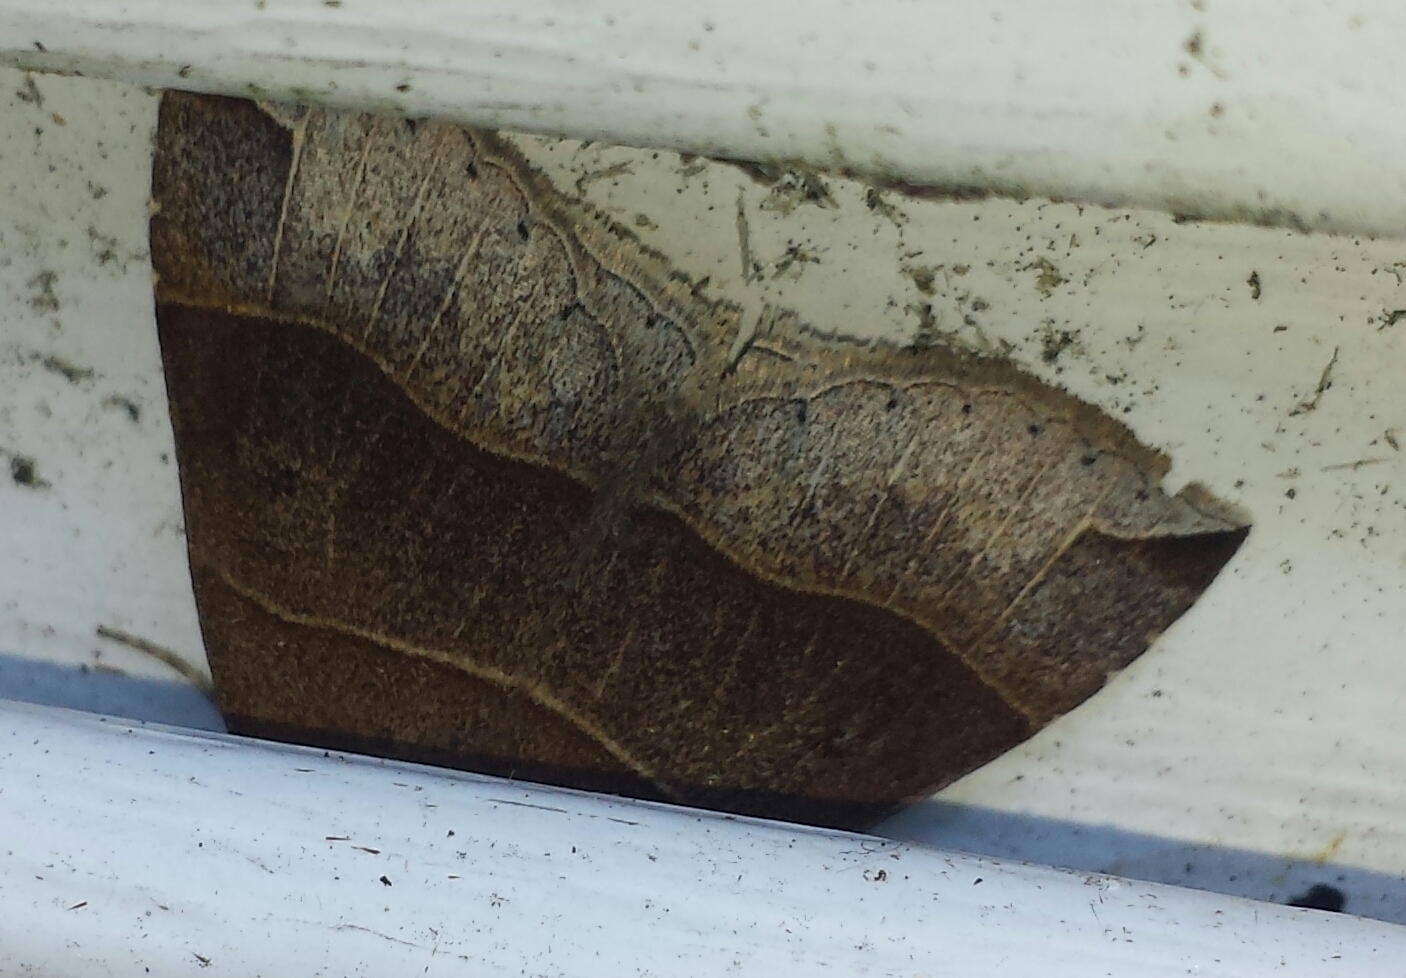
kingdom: Animalia
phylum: Arthropoda
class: Insecta
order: Lepidoptera
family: Erebidae
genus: Parallelia
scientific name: Parallelia bistriaris
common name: Maple looper moth
